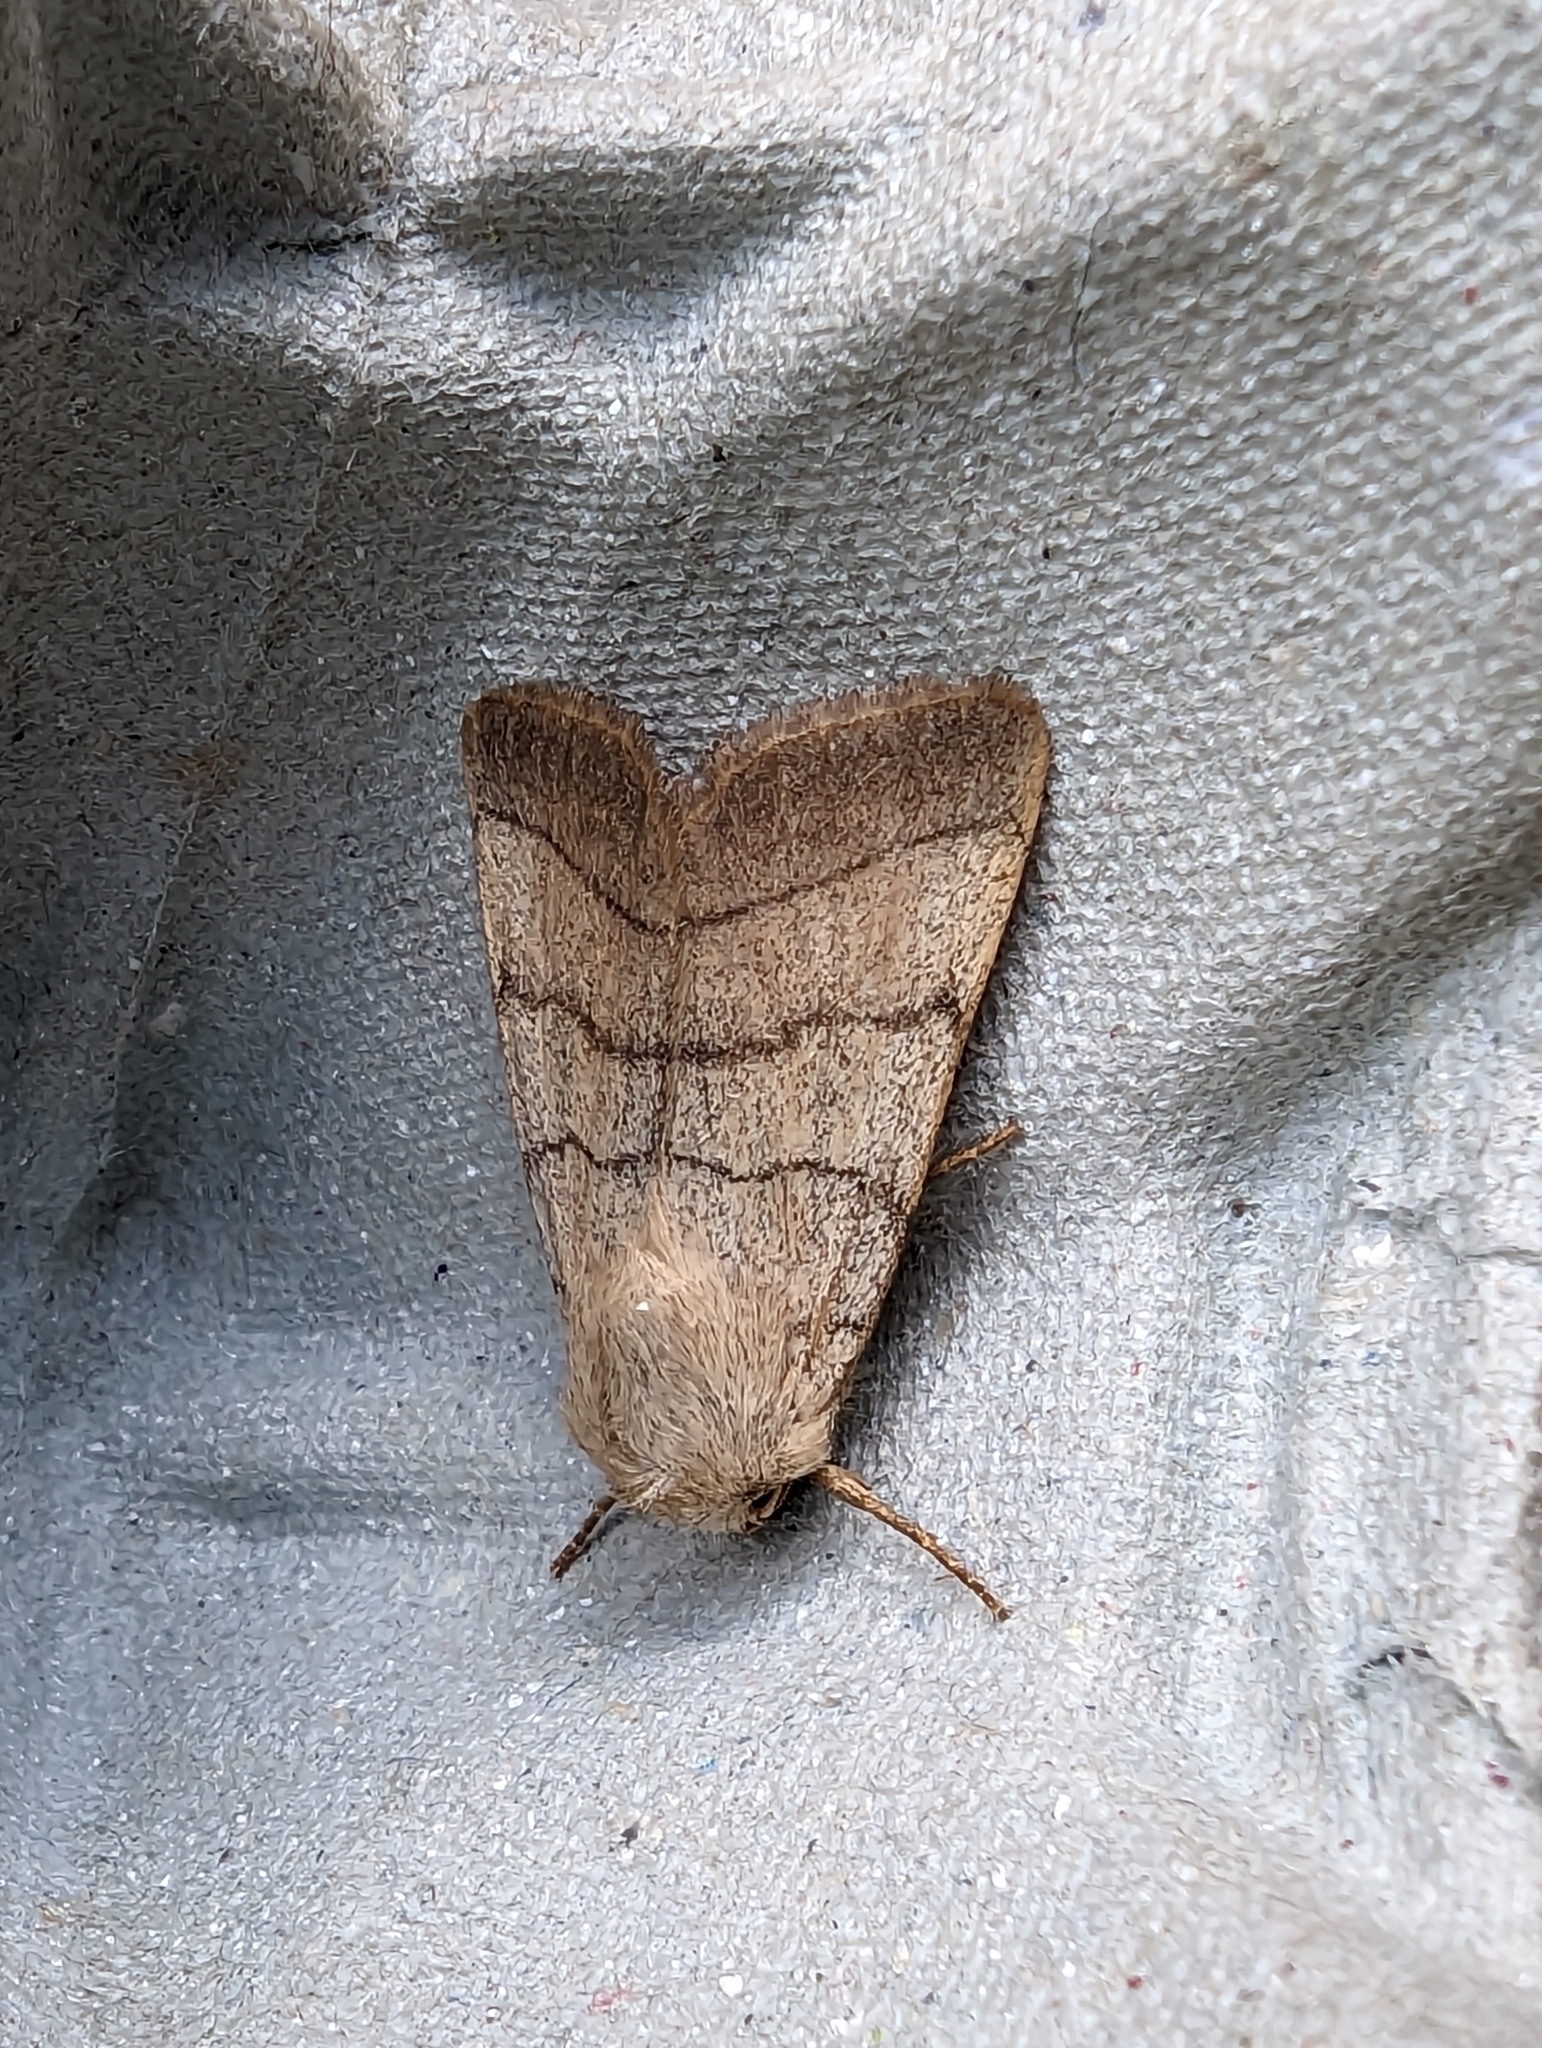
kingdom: Animalia
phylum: Arthropoda
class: Insecta
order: Lepidoptera
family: Noctuidae
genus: Charanyca
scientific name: Charanyca trigrammica
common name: Treble lines
